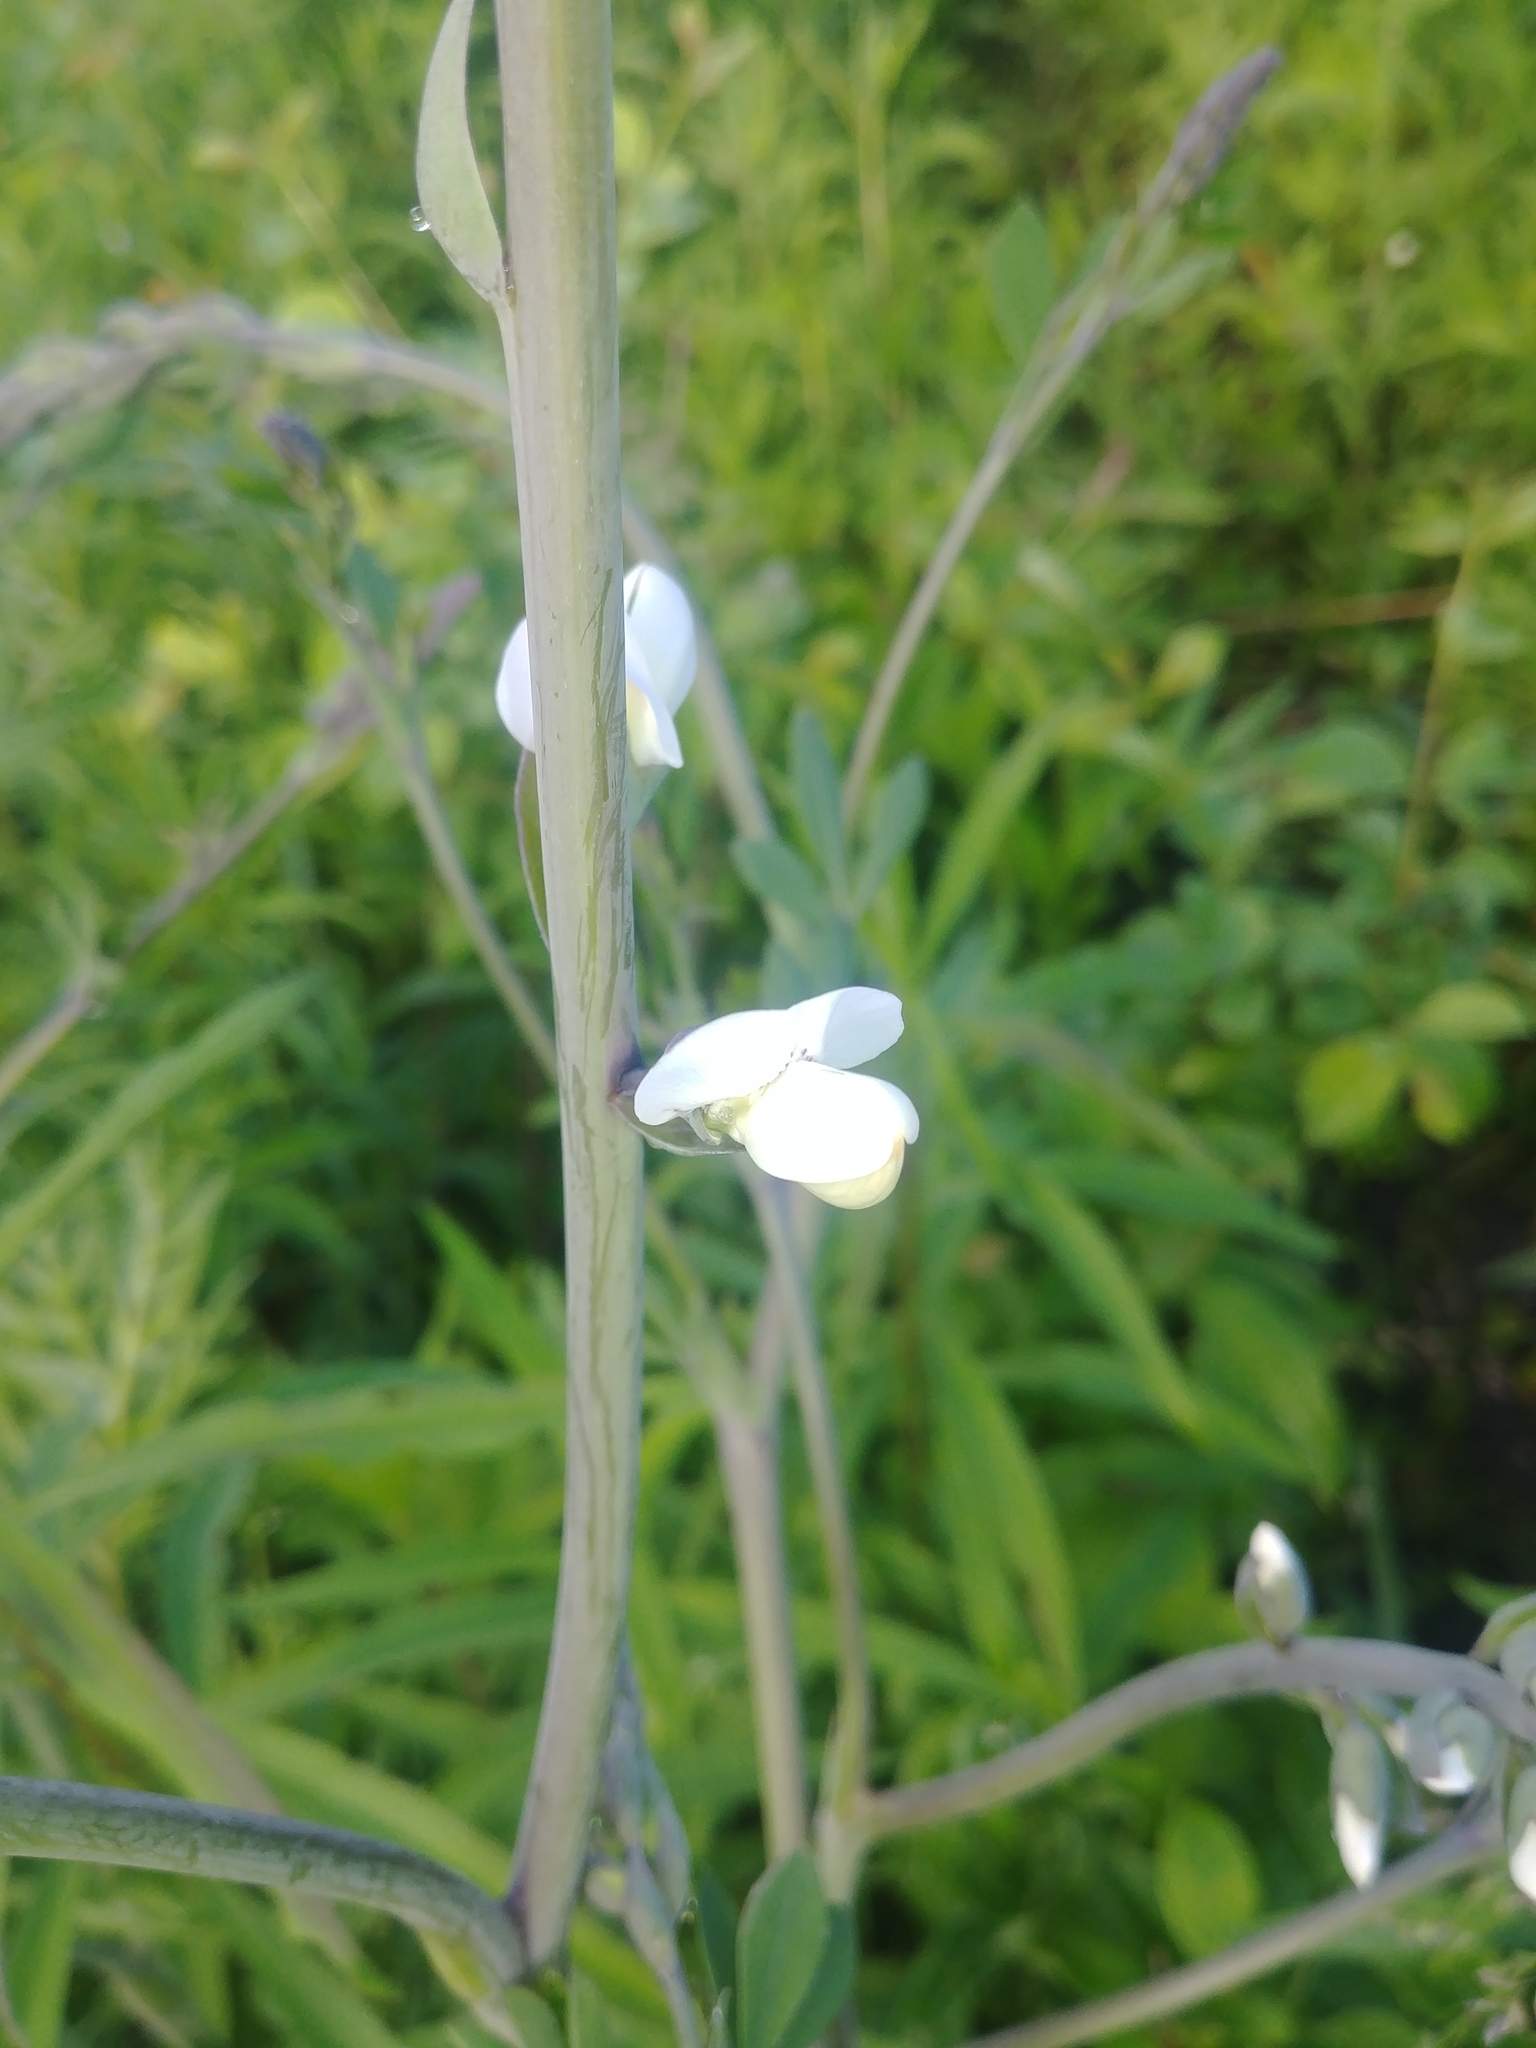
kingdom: Plantae
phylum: Tracheophyta
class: Magnoliopsida
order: Fabales
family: Fabaceae
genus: Baptisia
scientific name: Baptisia alba
